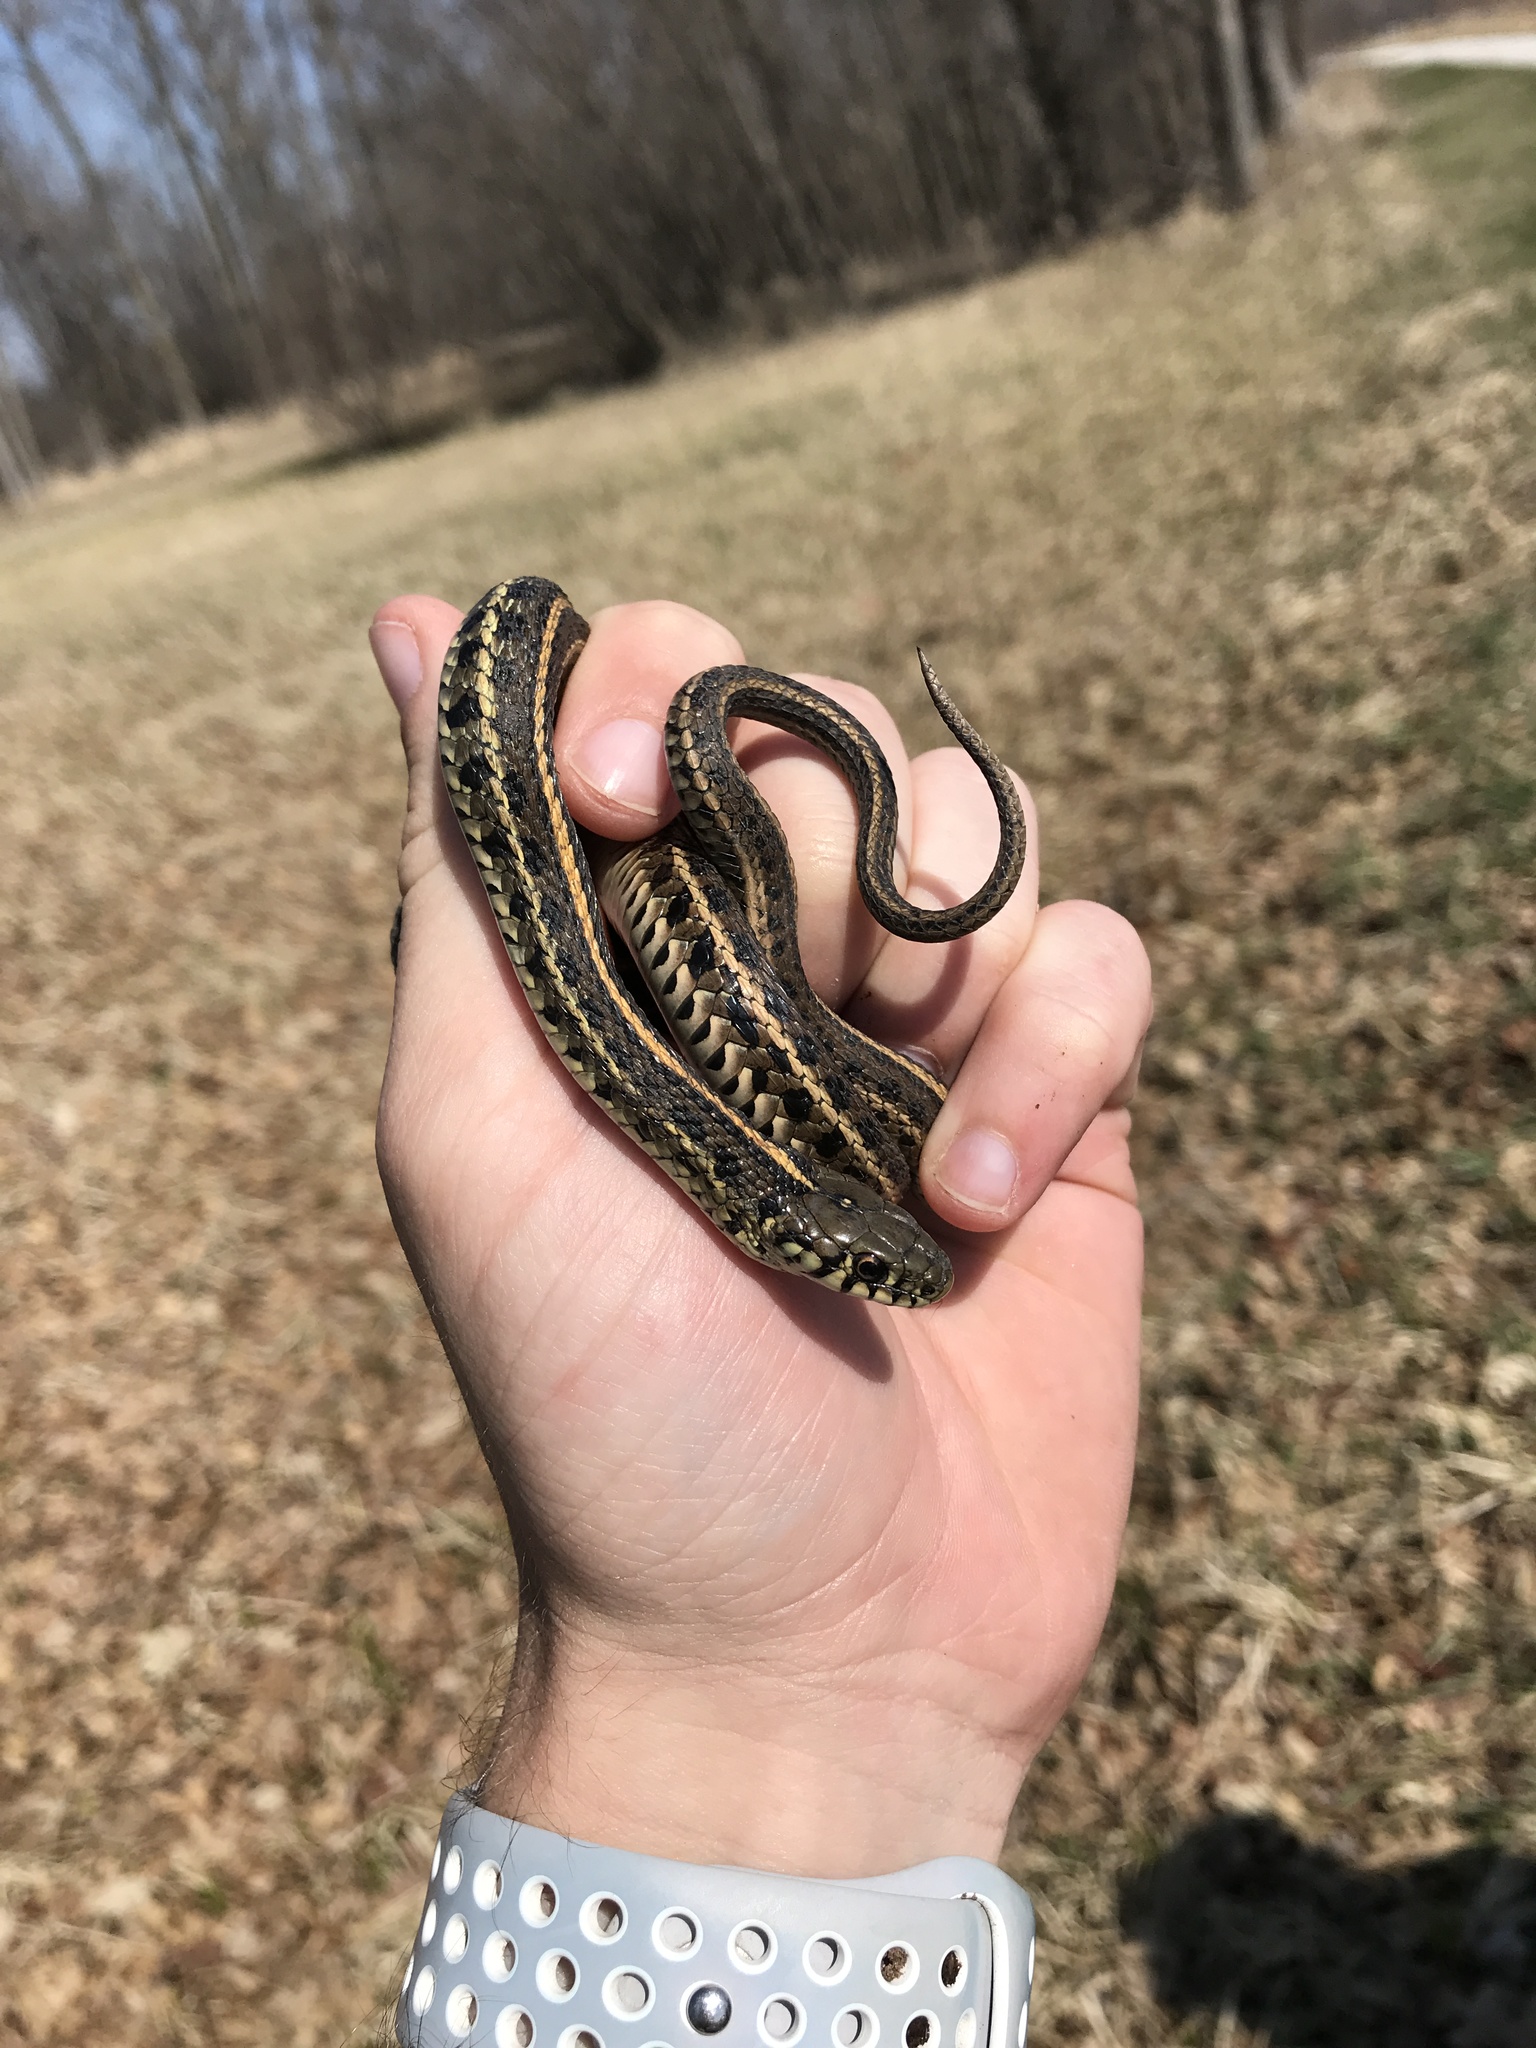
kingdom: Animalia
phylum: Chordata
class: Squamata
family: Colubridae
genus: Thamnophis
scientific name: Thamnophis radix
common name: Plains garter snake
